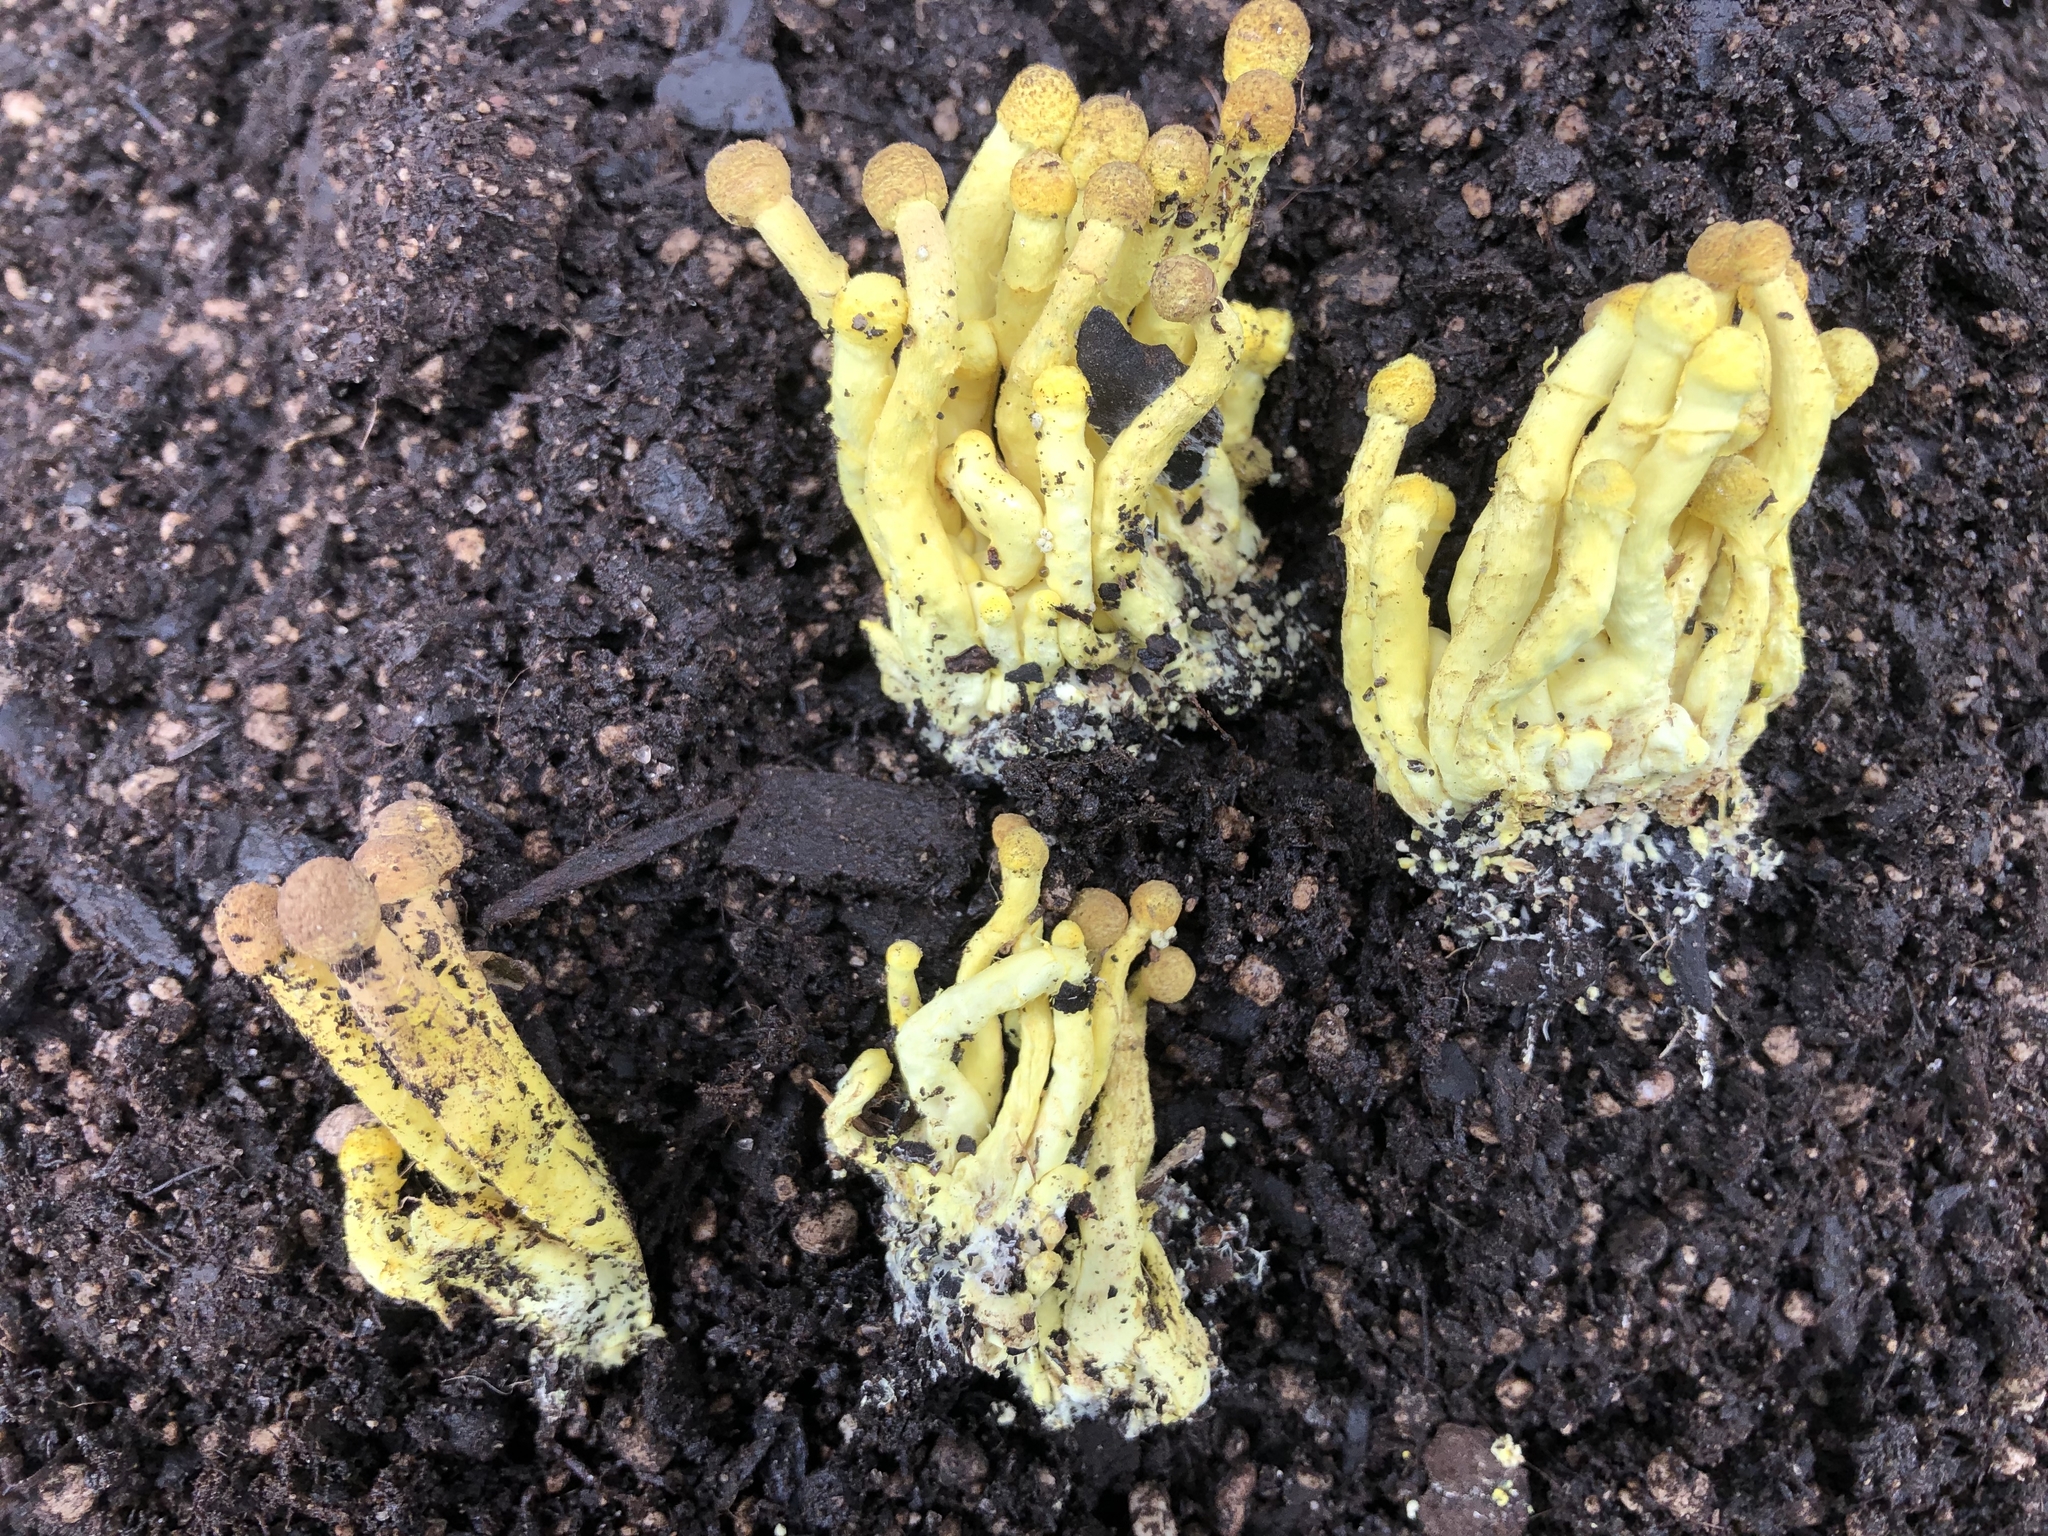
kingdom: Fungi
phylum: Basidiomycota
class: Agaricomycetes
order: Agaricales
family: Agaricaceae
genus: Leucocoprinus
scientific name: Leucocoprinus birnbaumii
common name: Plantpot dapperling
